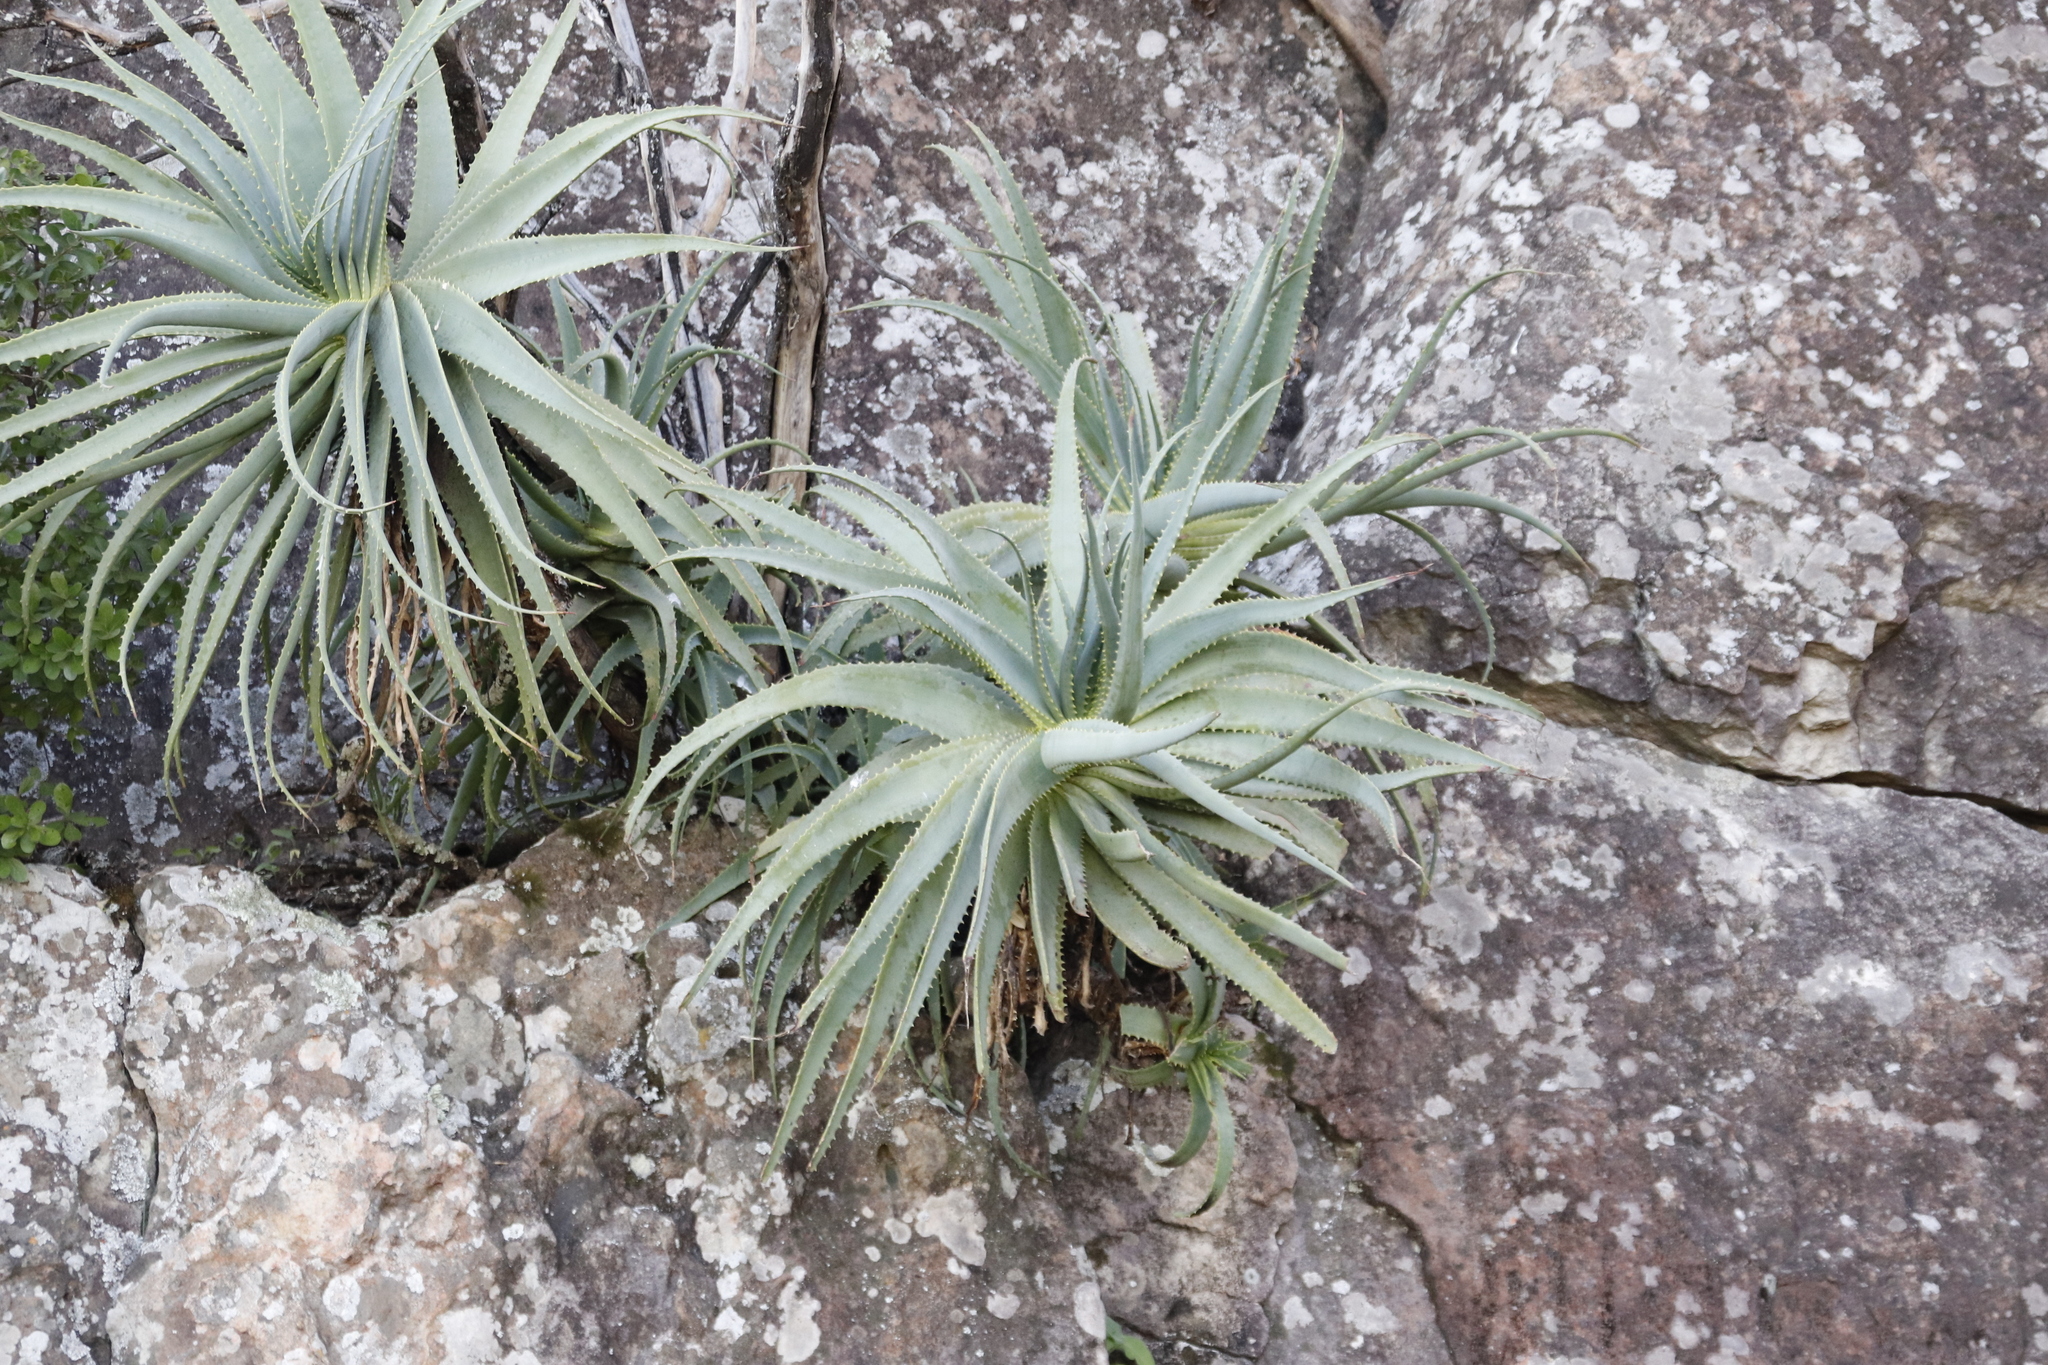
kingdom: Plantae
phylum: Tracheophyta
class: Liliopsida
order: Asparagales
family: Asphodelaceae
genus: Aloe
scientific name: Aloe arborescens
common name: Candelabra aloe
